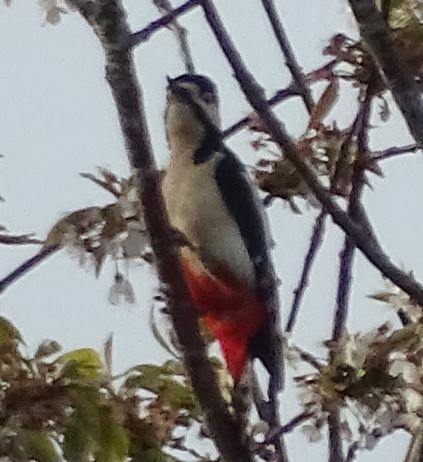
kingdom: Animalia
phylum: Chordata
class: Aves
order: Piciformes
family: Picidae
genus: Dendrocopos
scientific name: Dendrocopos major
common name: Great spotted woodpecker
